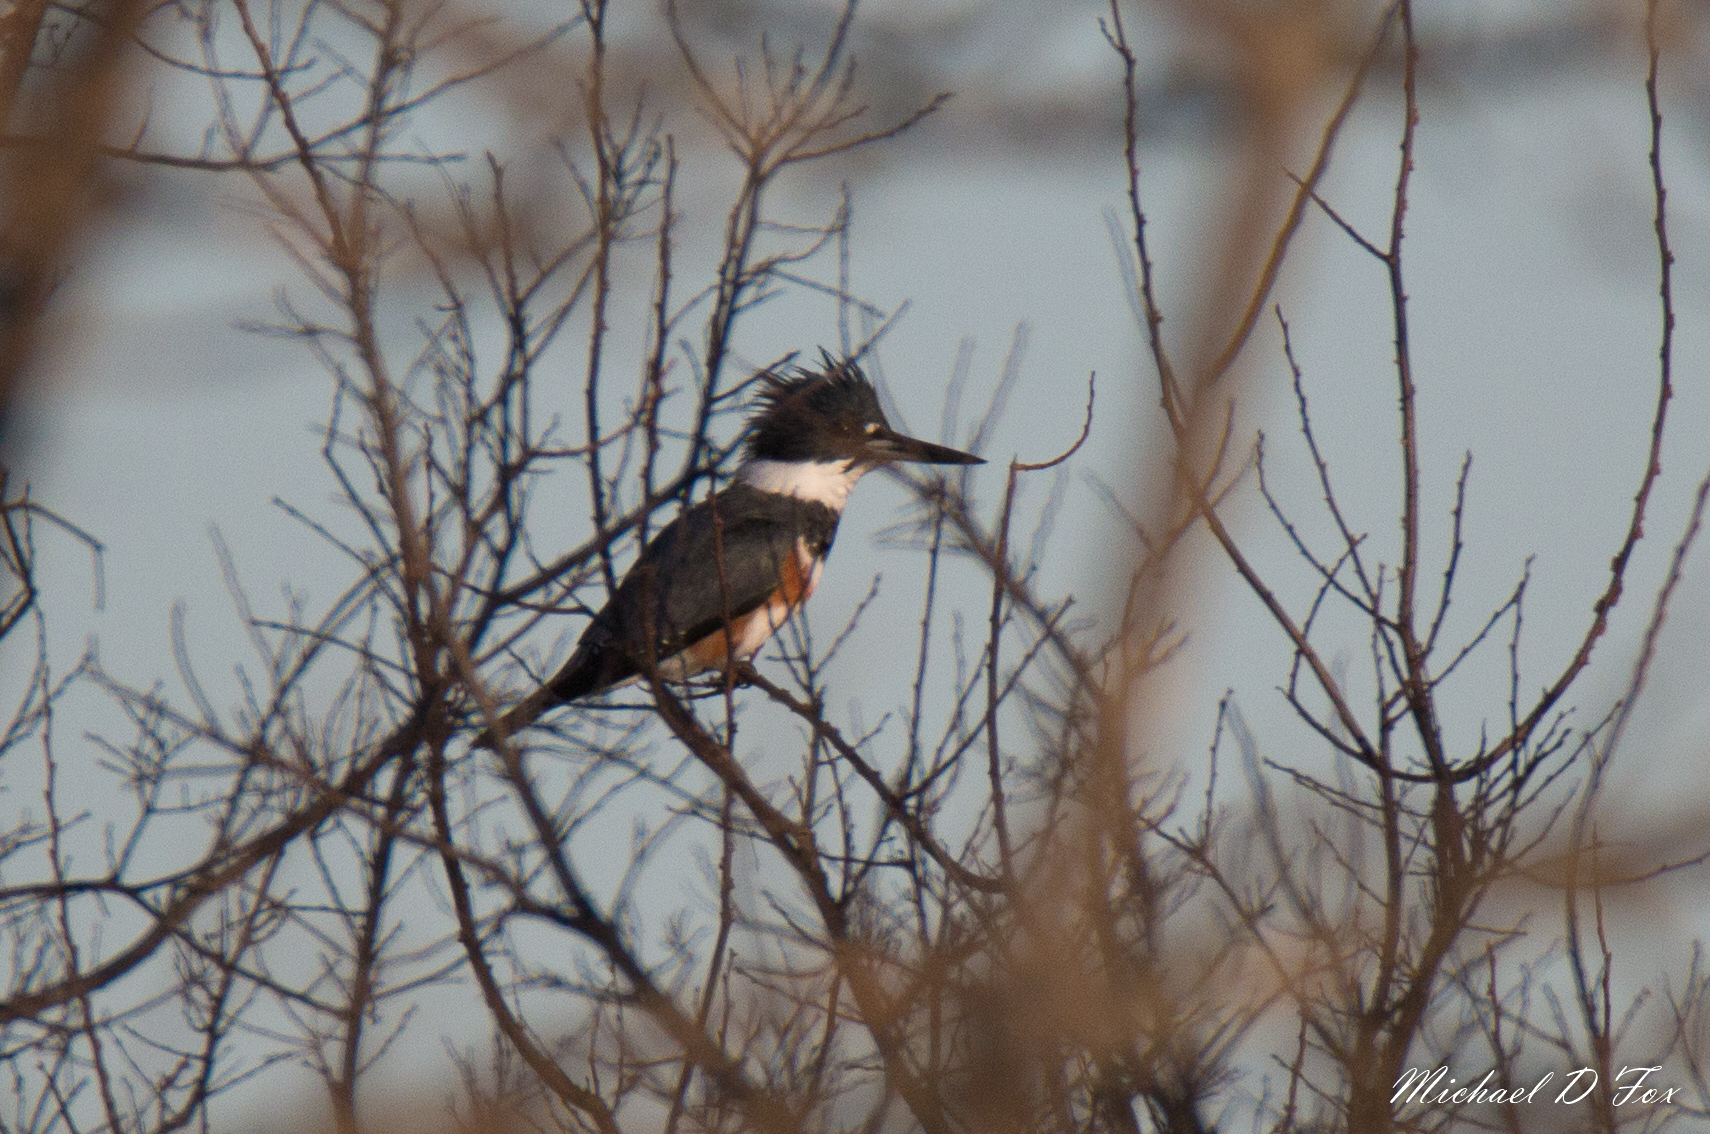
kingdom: Animalia
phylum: Chordata
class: Aves
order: Coraciiformes
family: Alcedinidae
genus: Megaceryle
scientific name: Megaceryle alcyon
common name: Belted kingfisher
